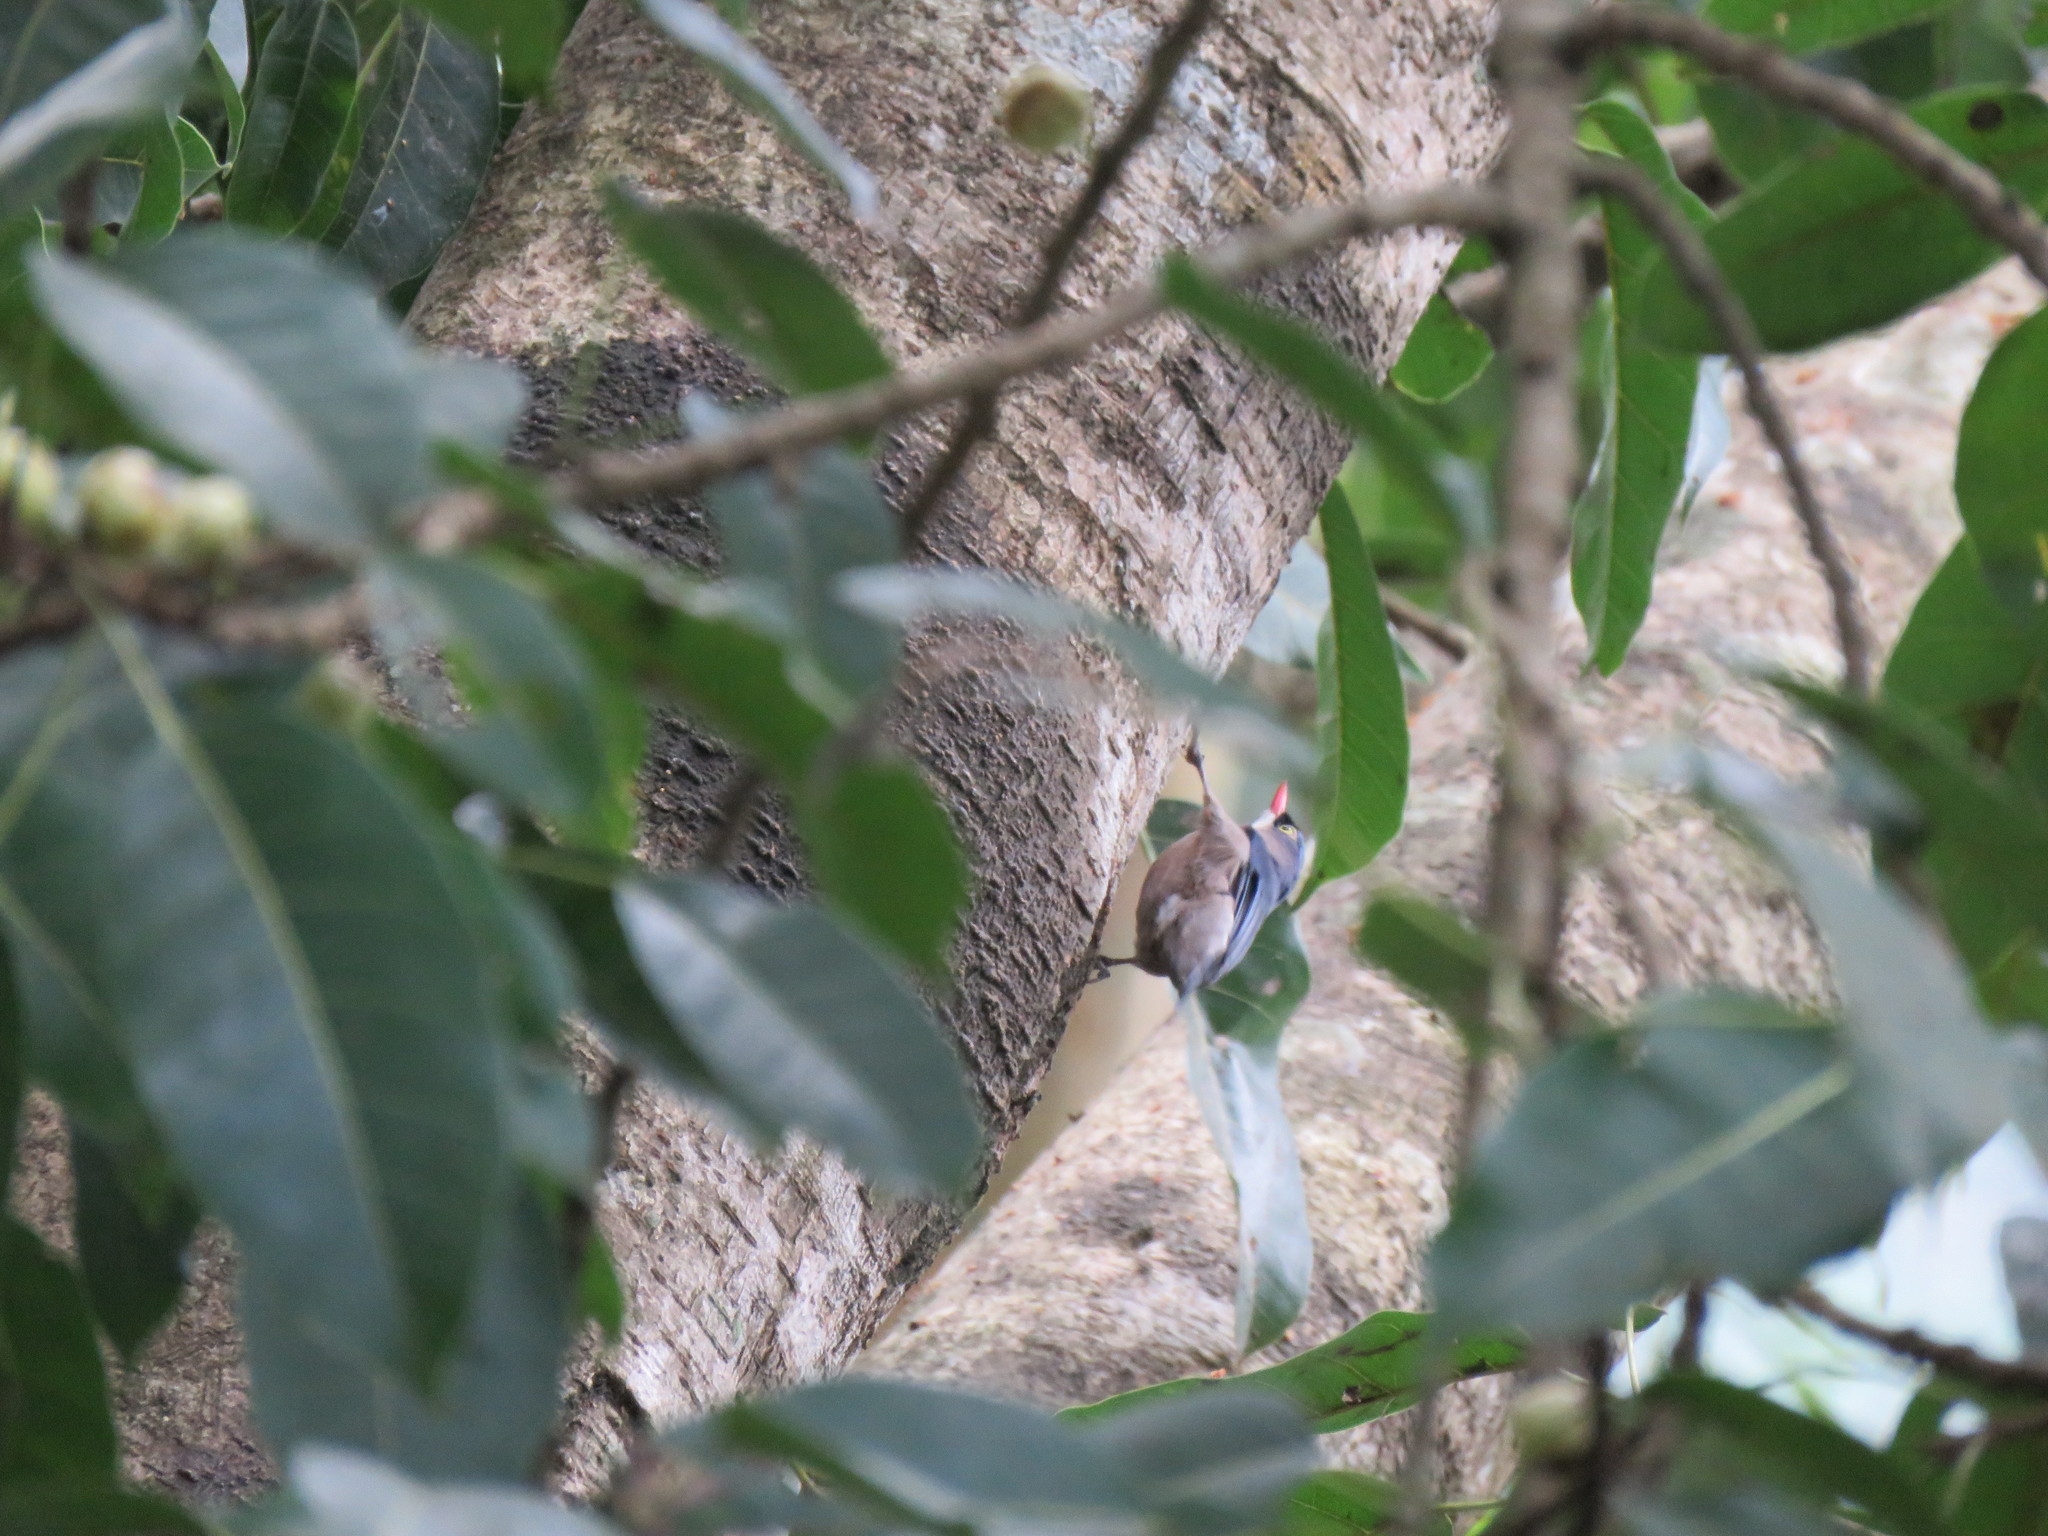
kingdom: Animalia
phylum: Chordata
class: Aves
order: Passeriformes
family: Sittidae
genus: Sitta
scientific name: Sitta frontalis
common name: Velvet-fronted nuthatch
